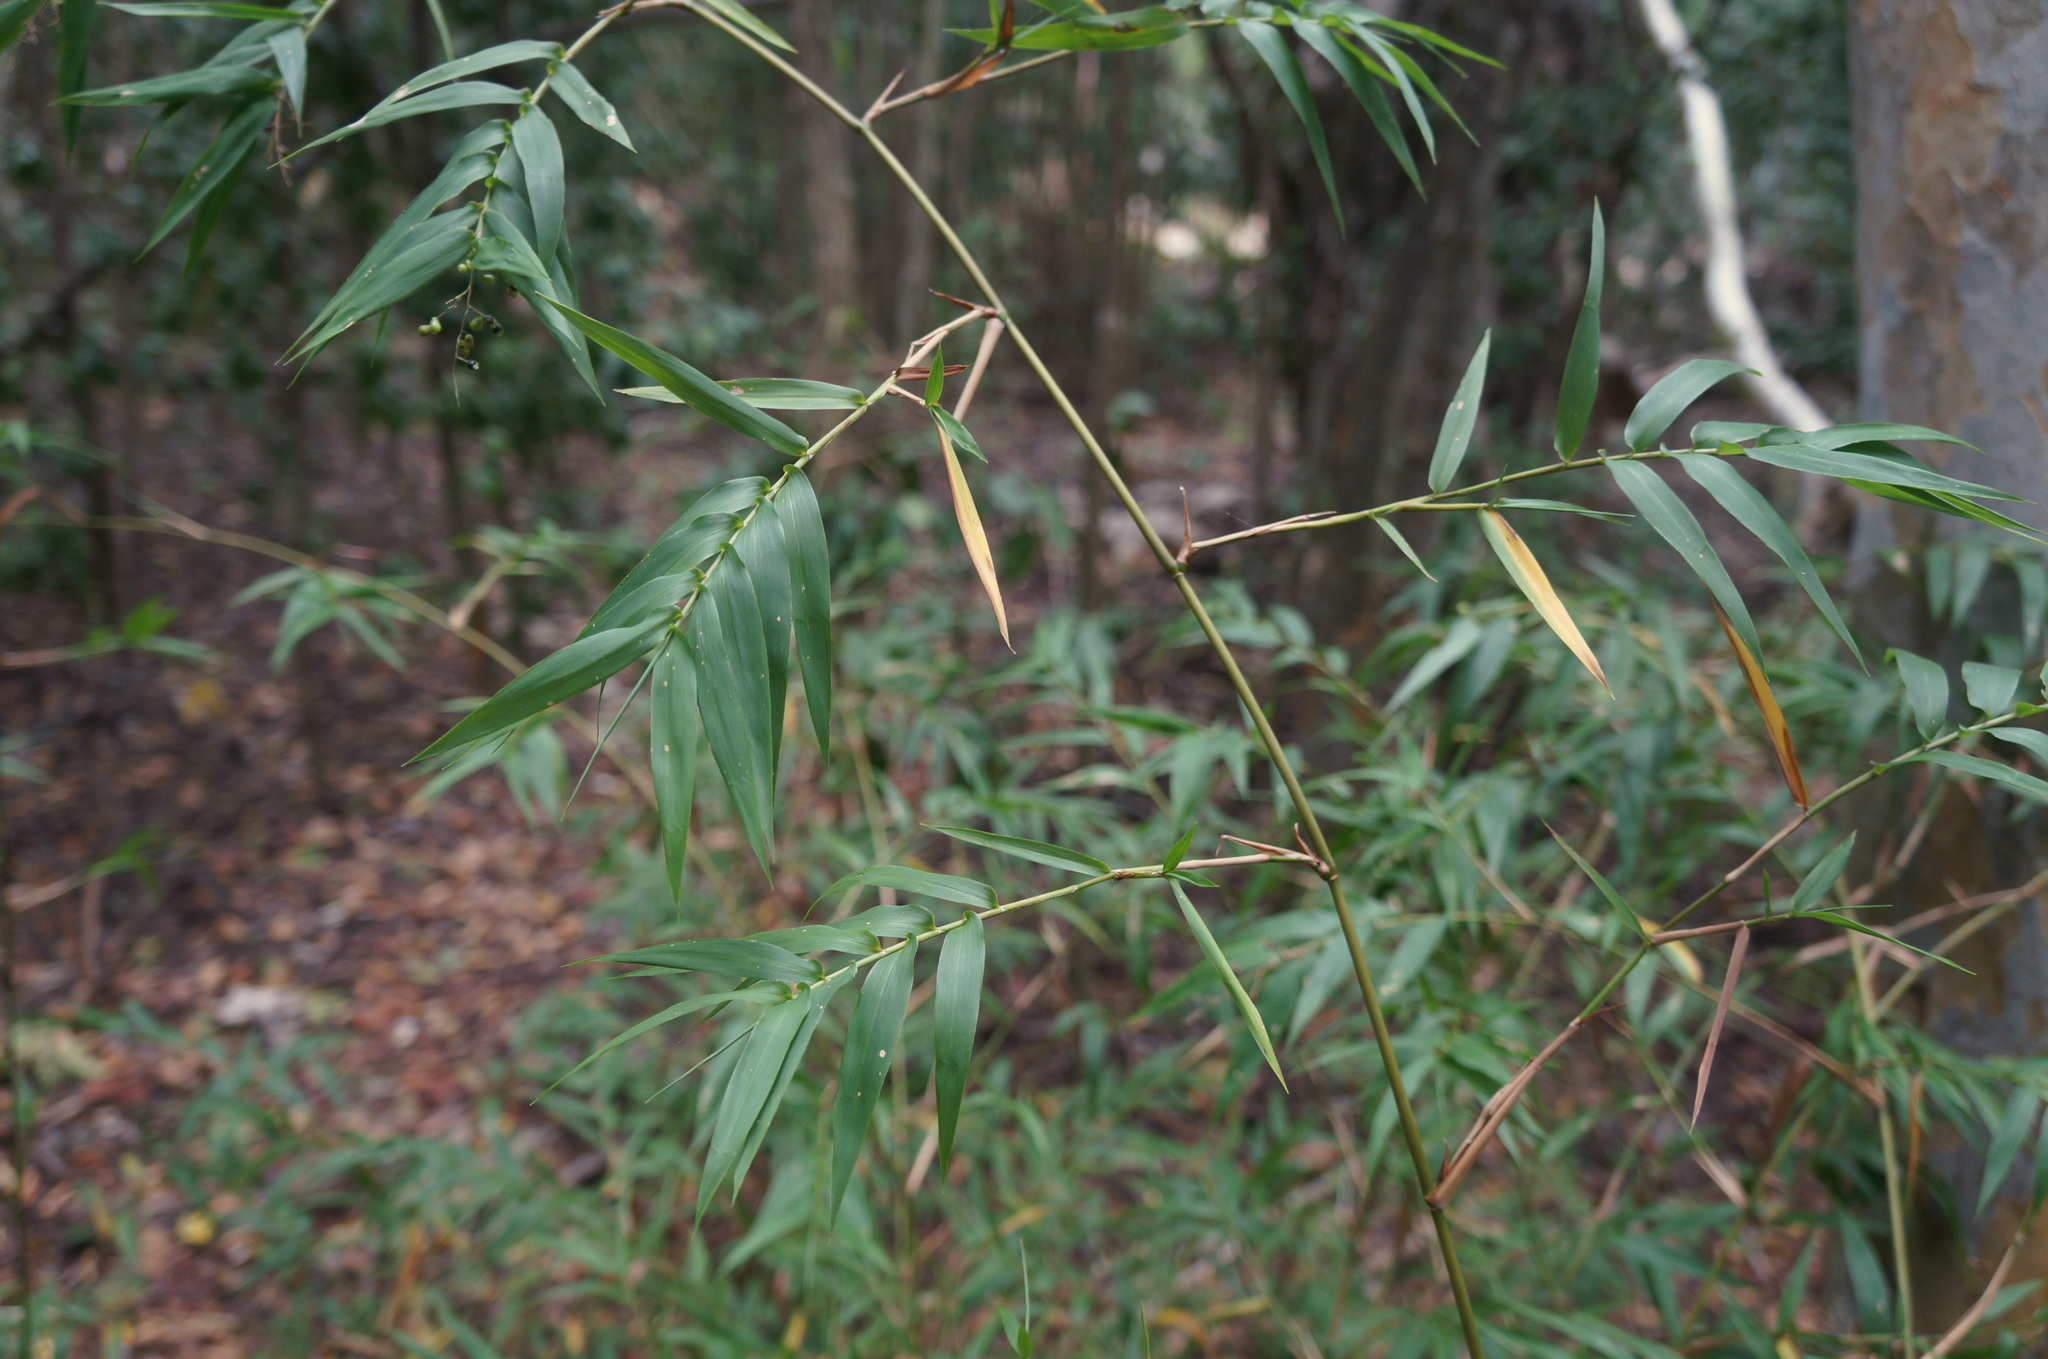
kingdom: Plantae
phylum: Tracheophyta
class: Liliopsida
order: Poales
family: Poaceae
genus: Lasiacis
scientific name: Lasiacis divaricata
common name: Smallcane
